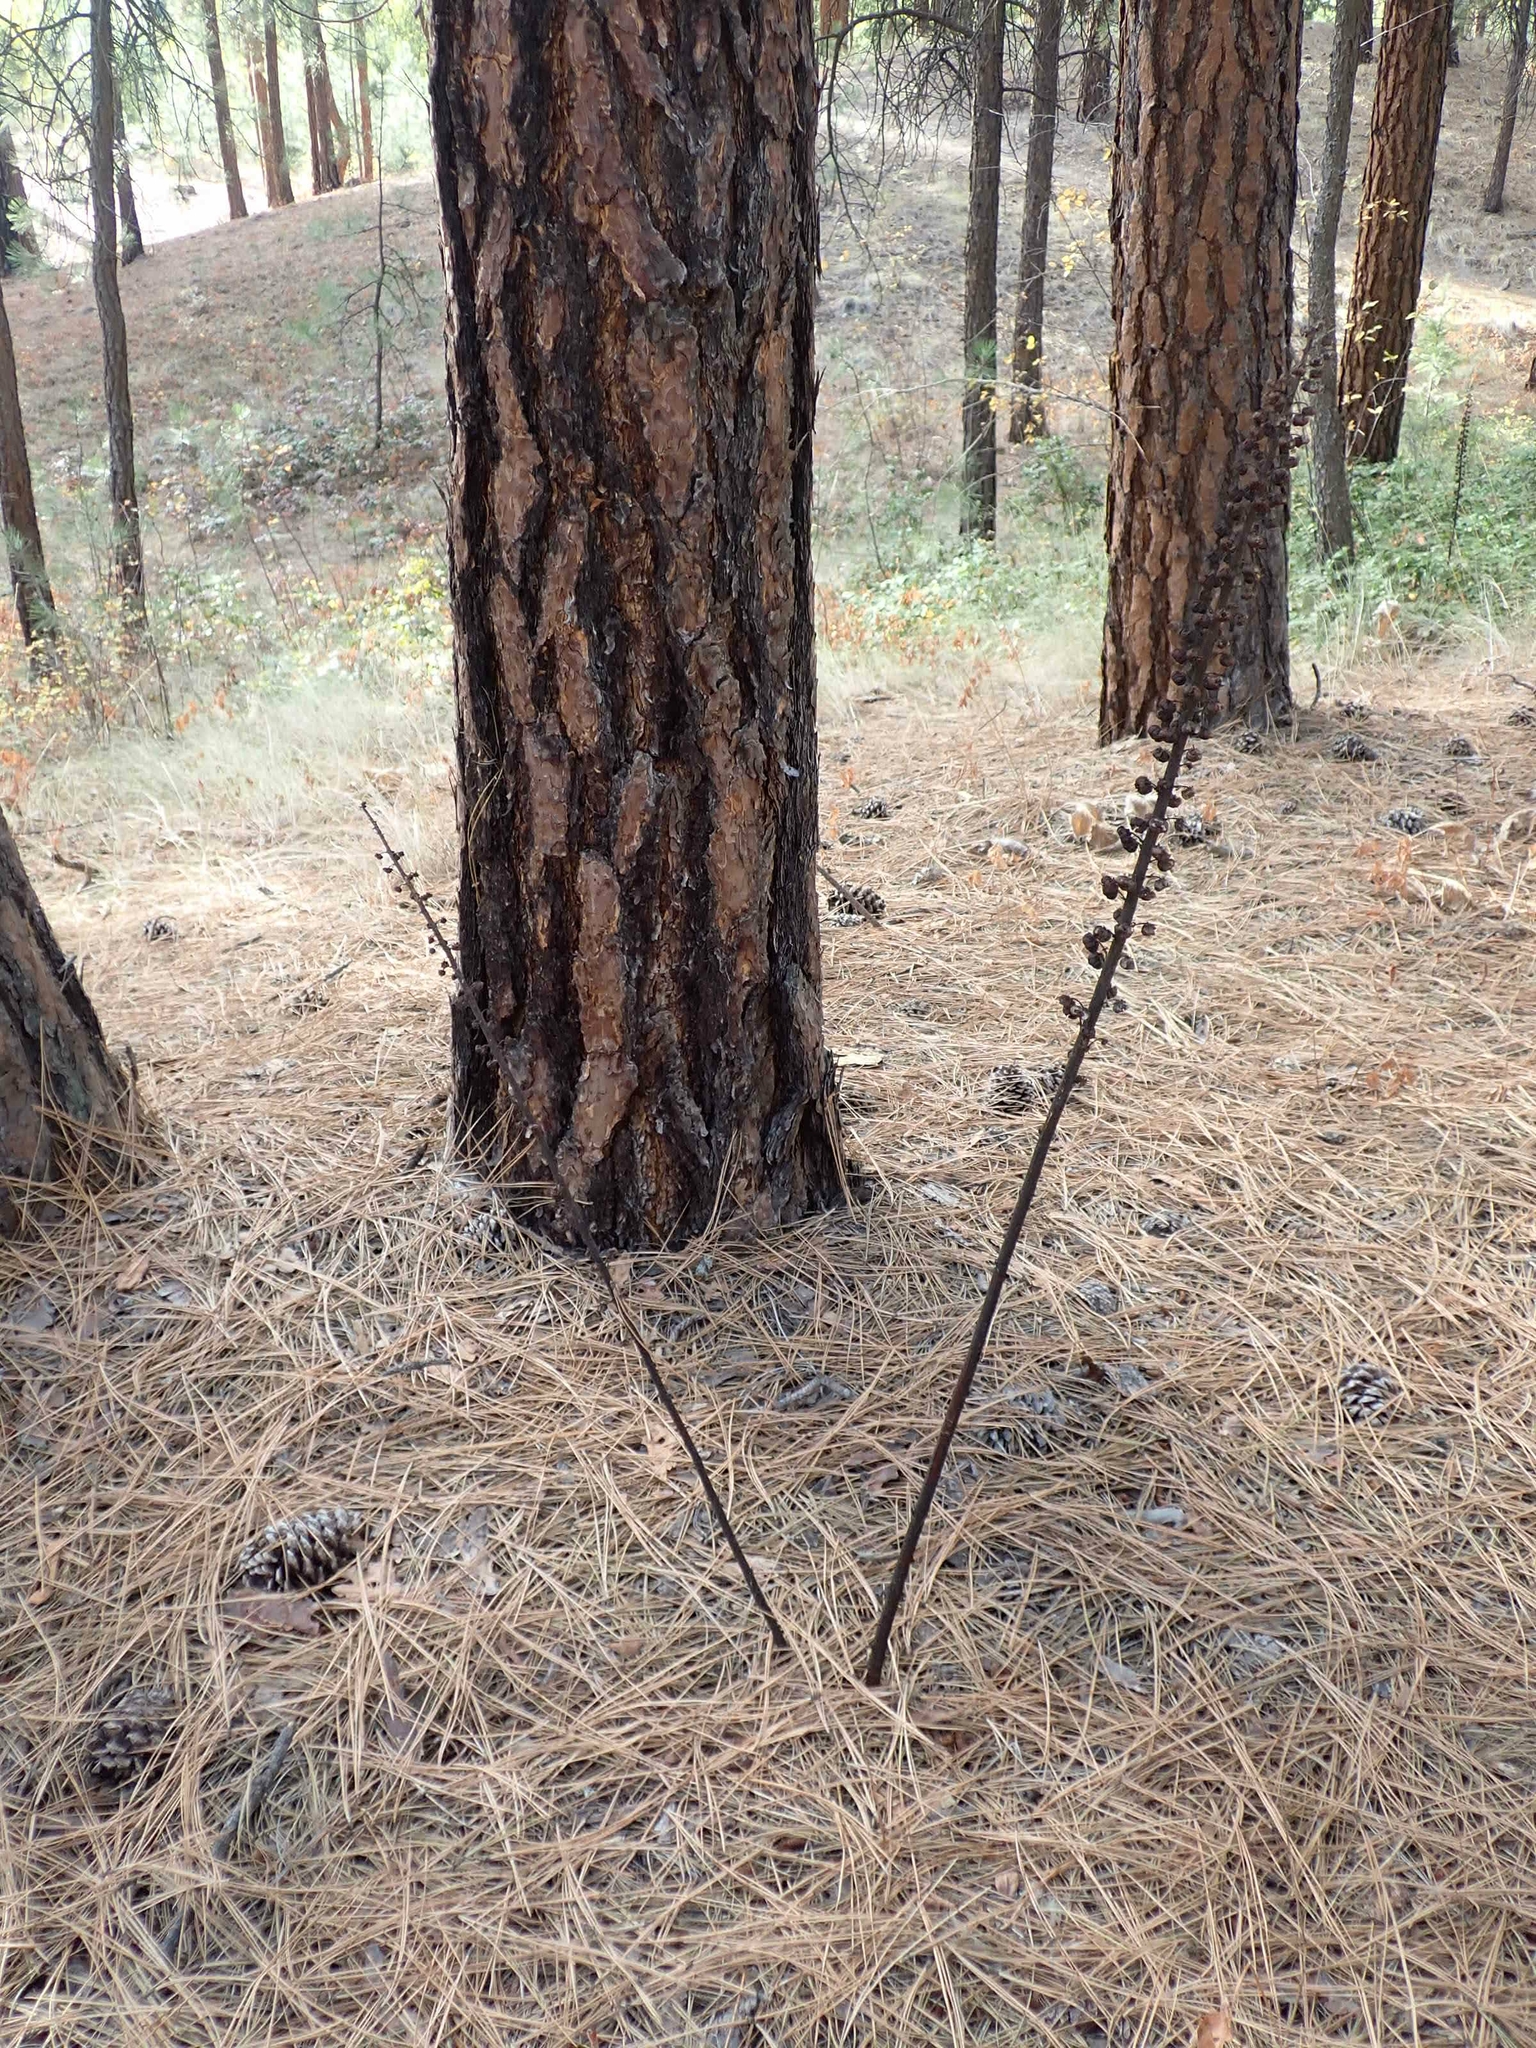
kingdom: Plantae
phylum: Tracheophyta
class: Magnoliopsida
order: Ericales
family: Ericaceae
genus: Pterospora
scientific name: Pterospora andromedea
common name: Giant bird's-nest
